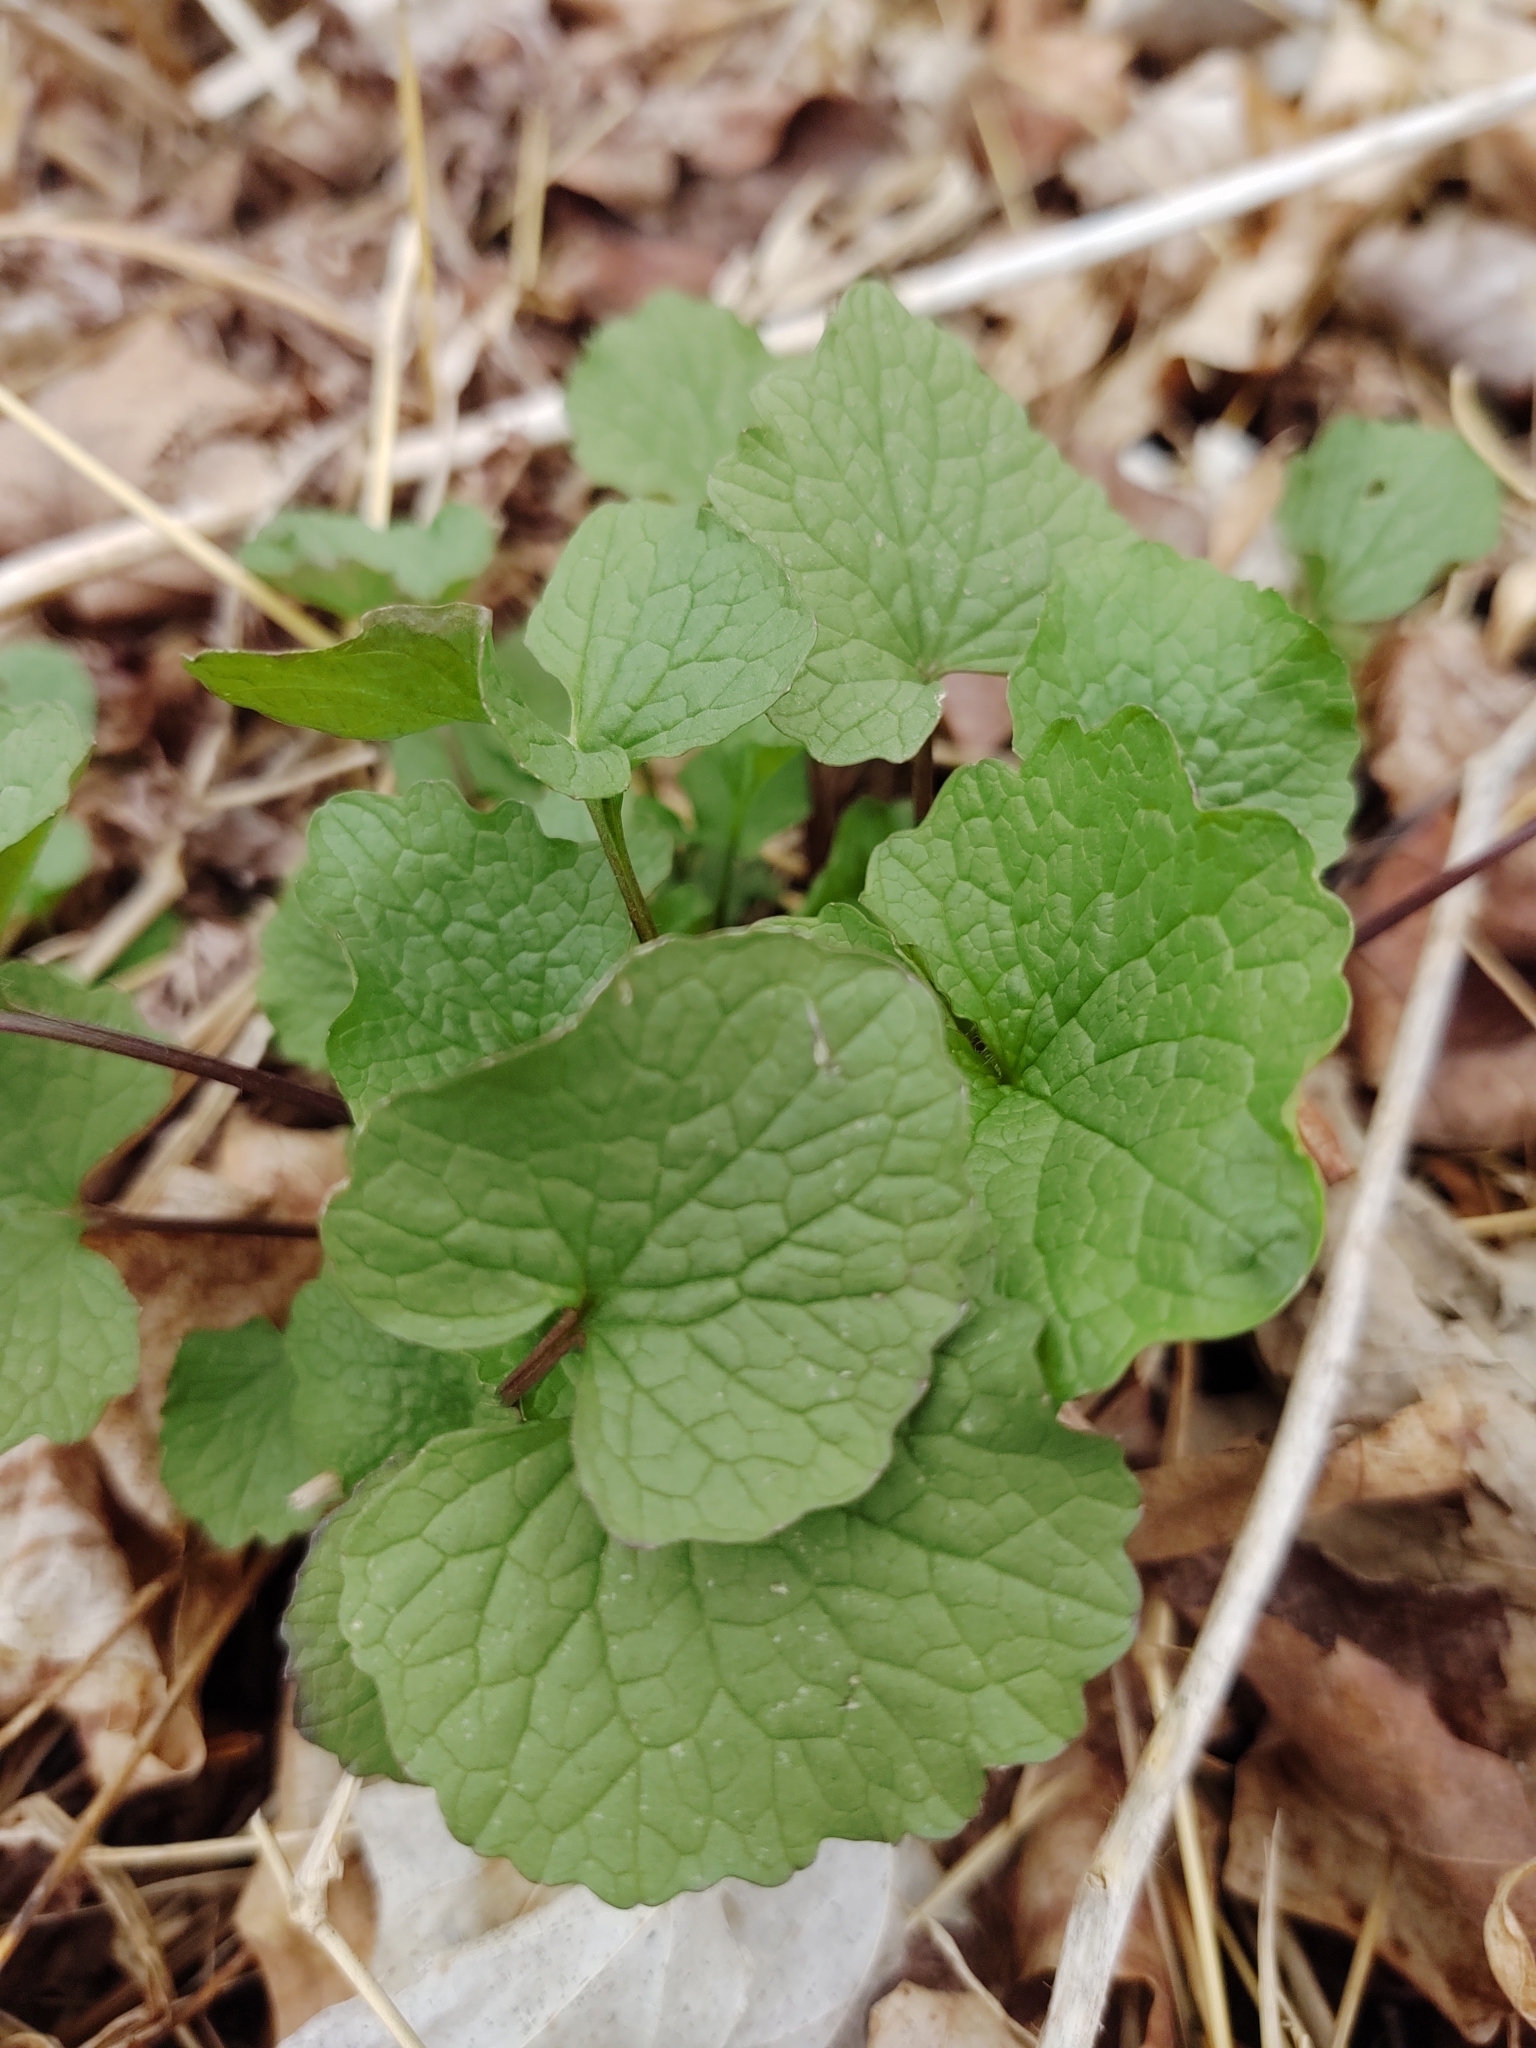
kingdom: Plantae
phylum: Tracheophyta
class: Magnoliopsida
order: Brassicales
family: Brassicaceae
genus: Alliaria
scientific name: Alliaria petiolata
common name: Garlic mustard
